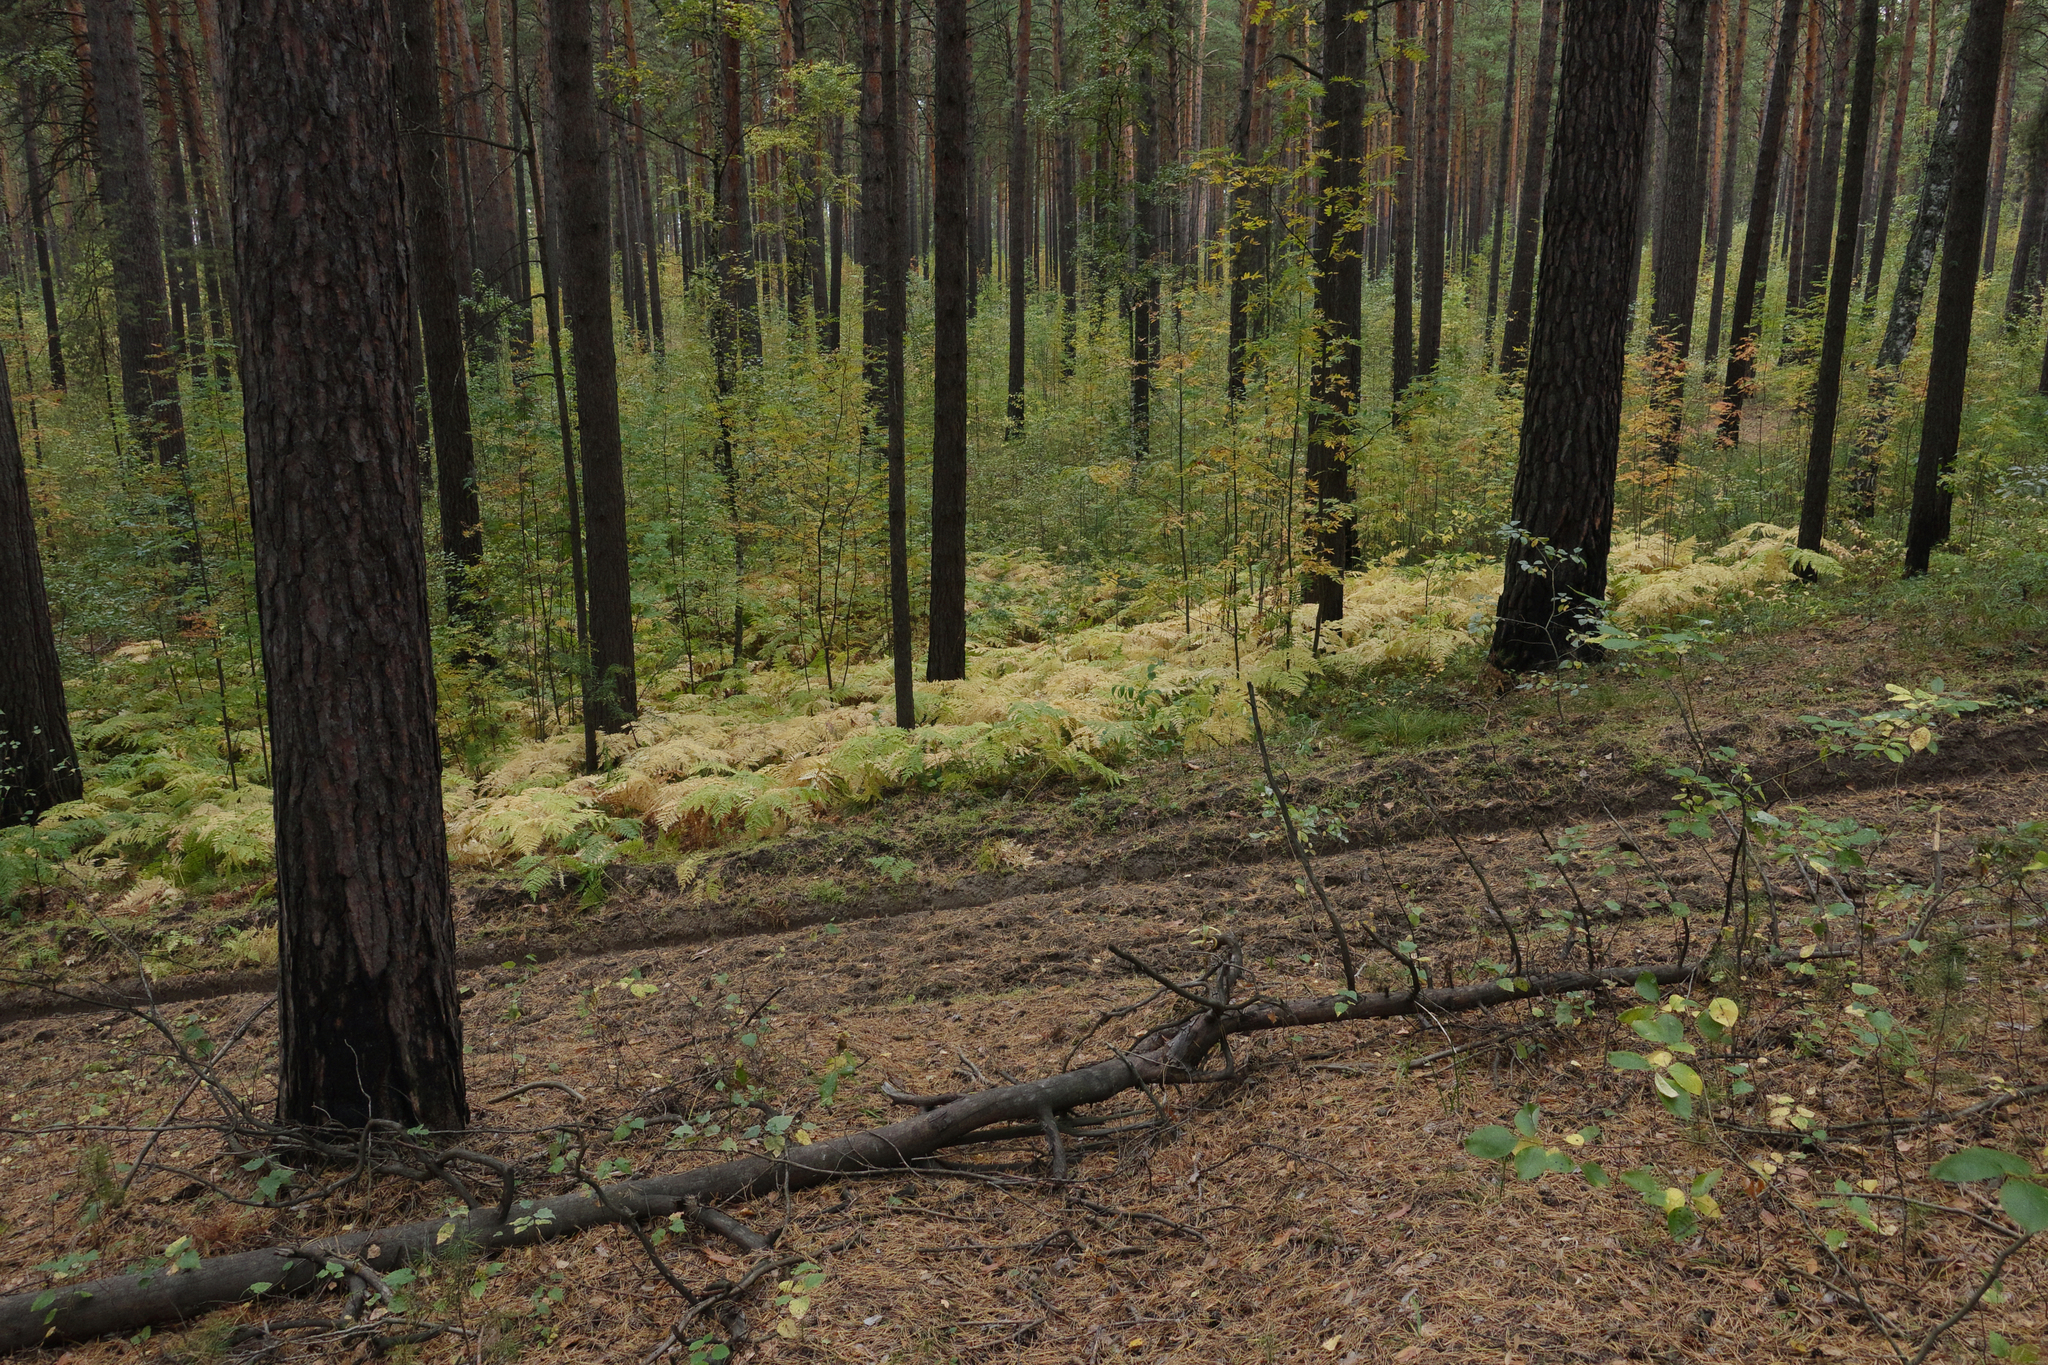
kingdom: Plantae
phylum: Tracheophyta
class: Polypodiopsida
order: Polypodiales
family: Dennstaedtiaceae
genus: Pteridium
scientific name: Pteridium aquilinum
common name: Bracken
